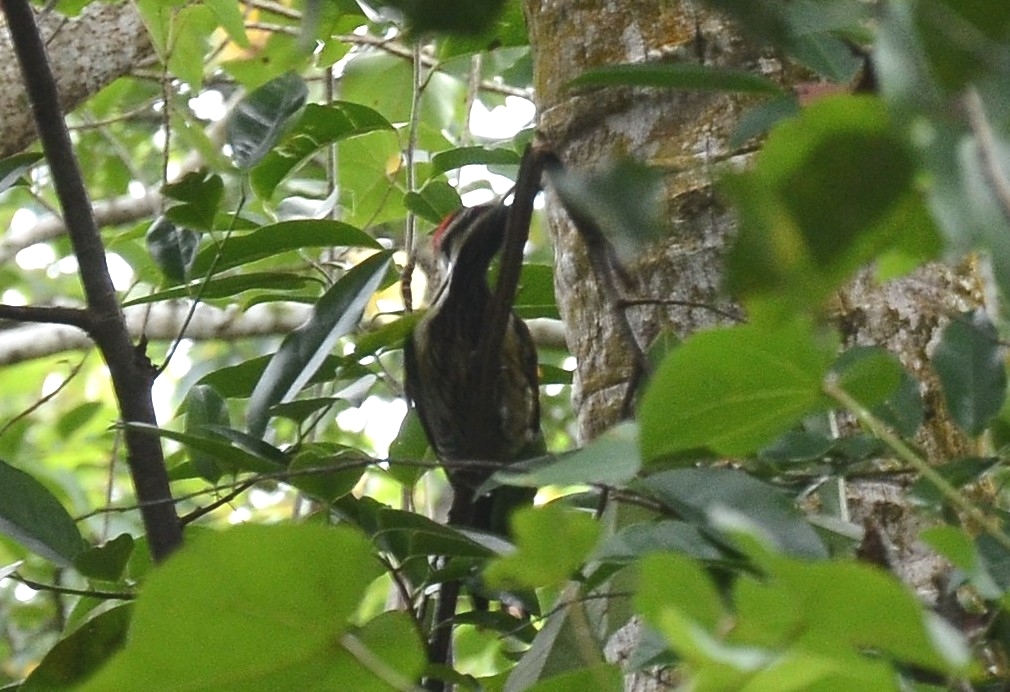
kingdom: Animalia
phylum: Chordata
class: Aves
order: Piciformes
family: Picidae
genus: Dinopium
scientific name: Dinopium benghalense
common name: Black-rumped flameback
